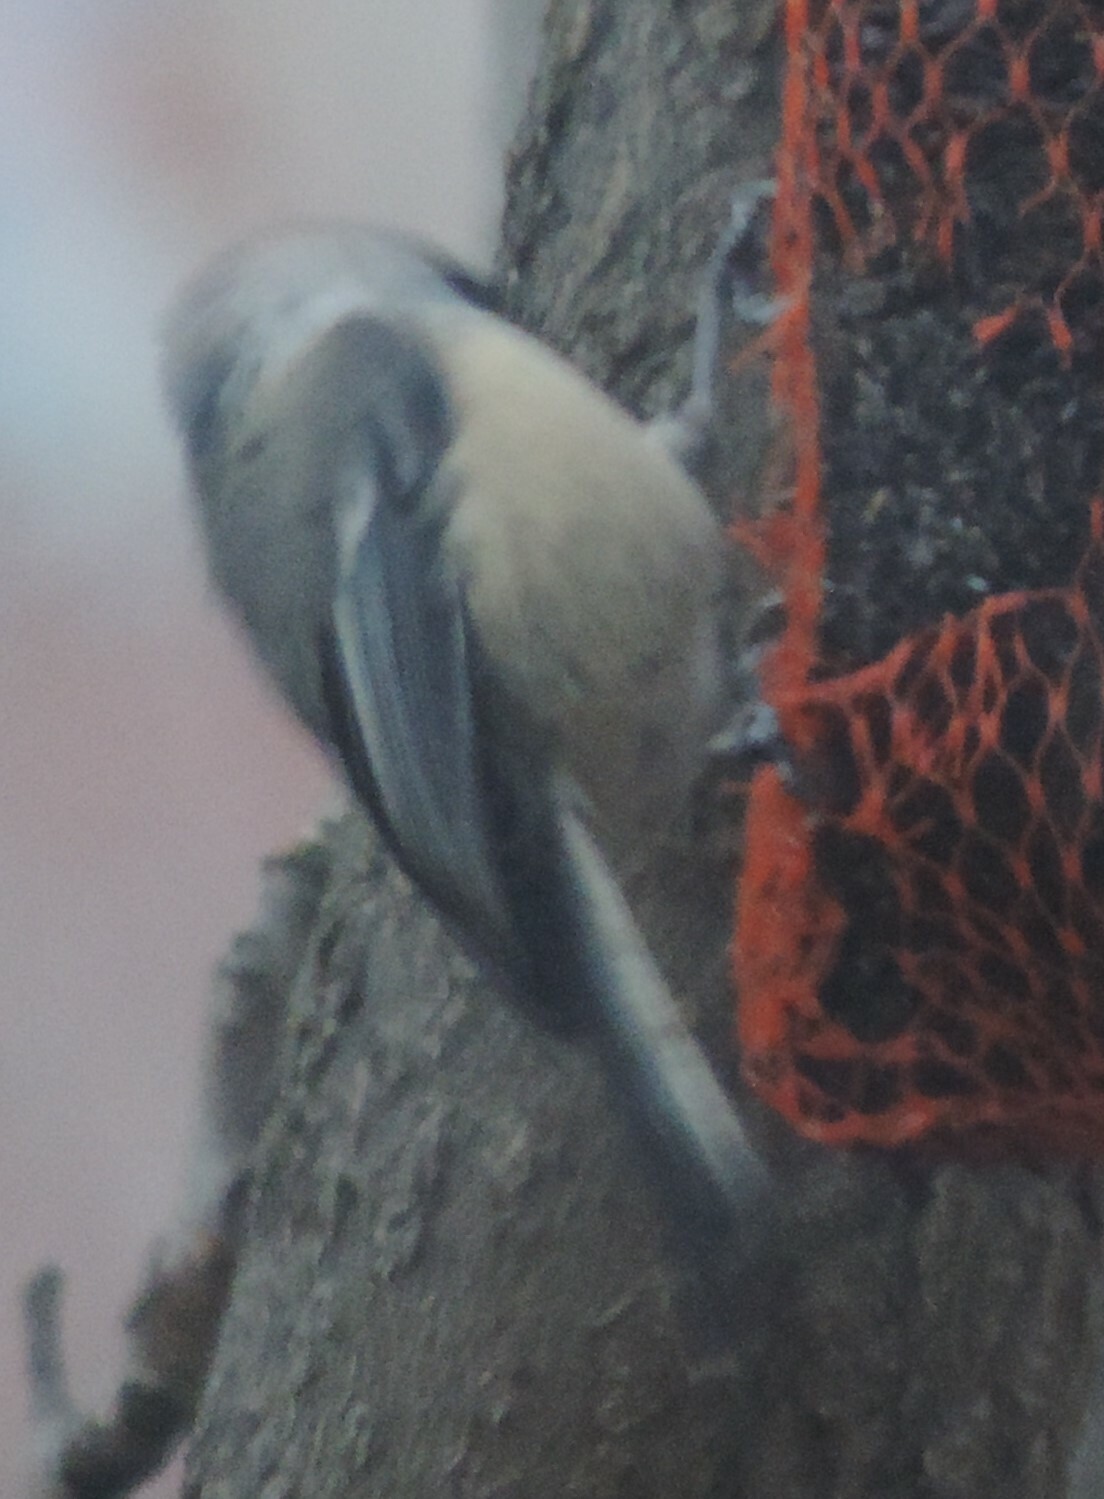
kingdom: Animalia
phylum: Chordata
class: Aves
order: Passeriformes
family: Paridae
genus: Poecile
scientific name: Poecile atricapillus
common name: Black-capped chickadee
